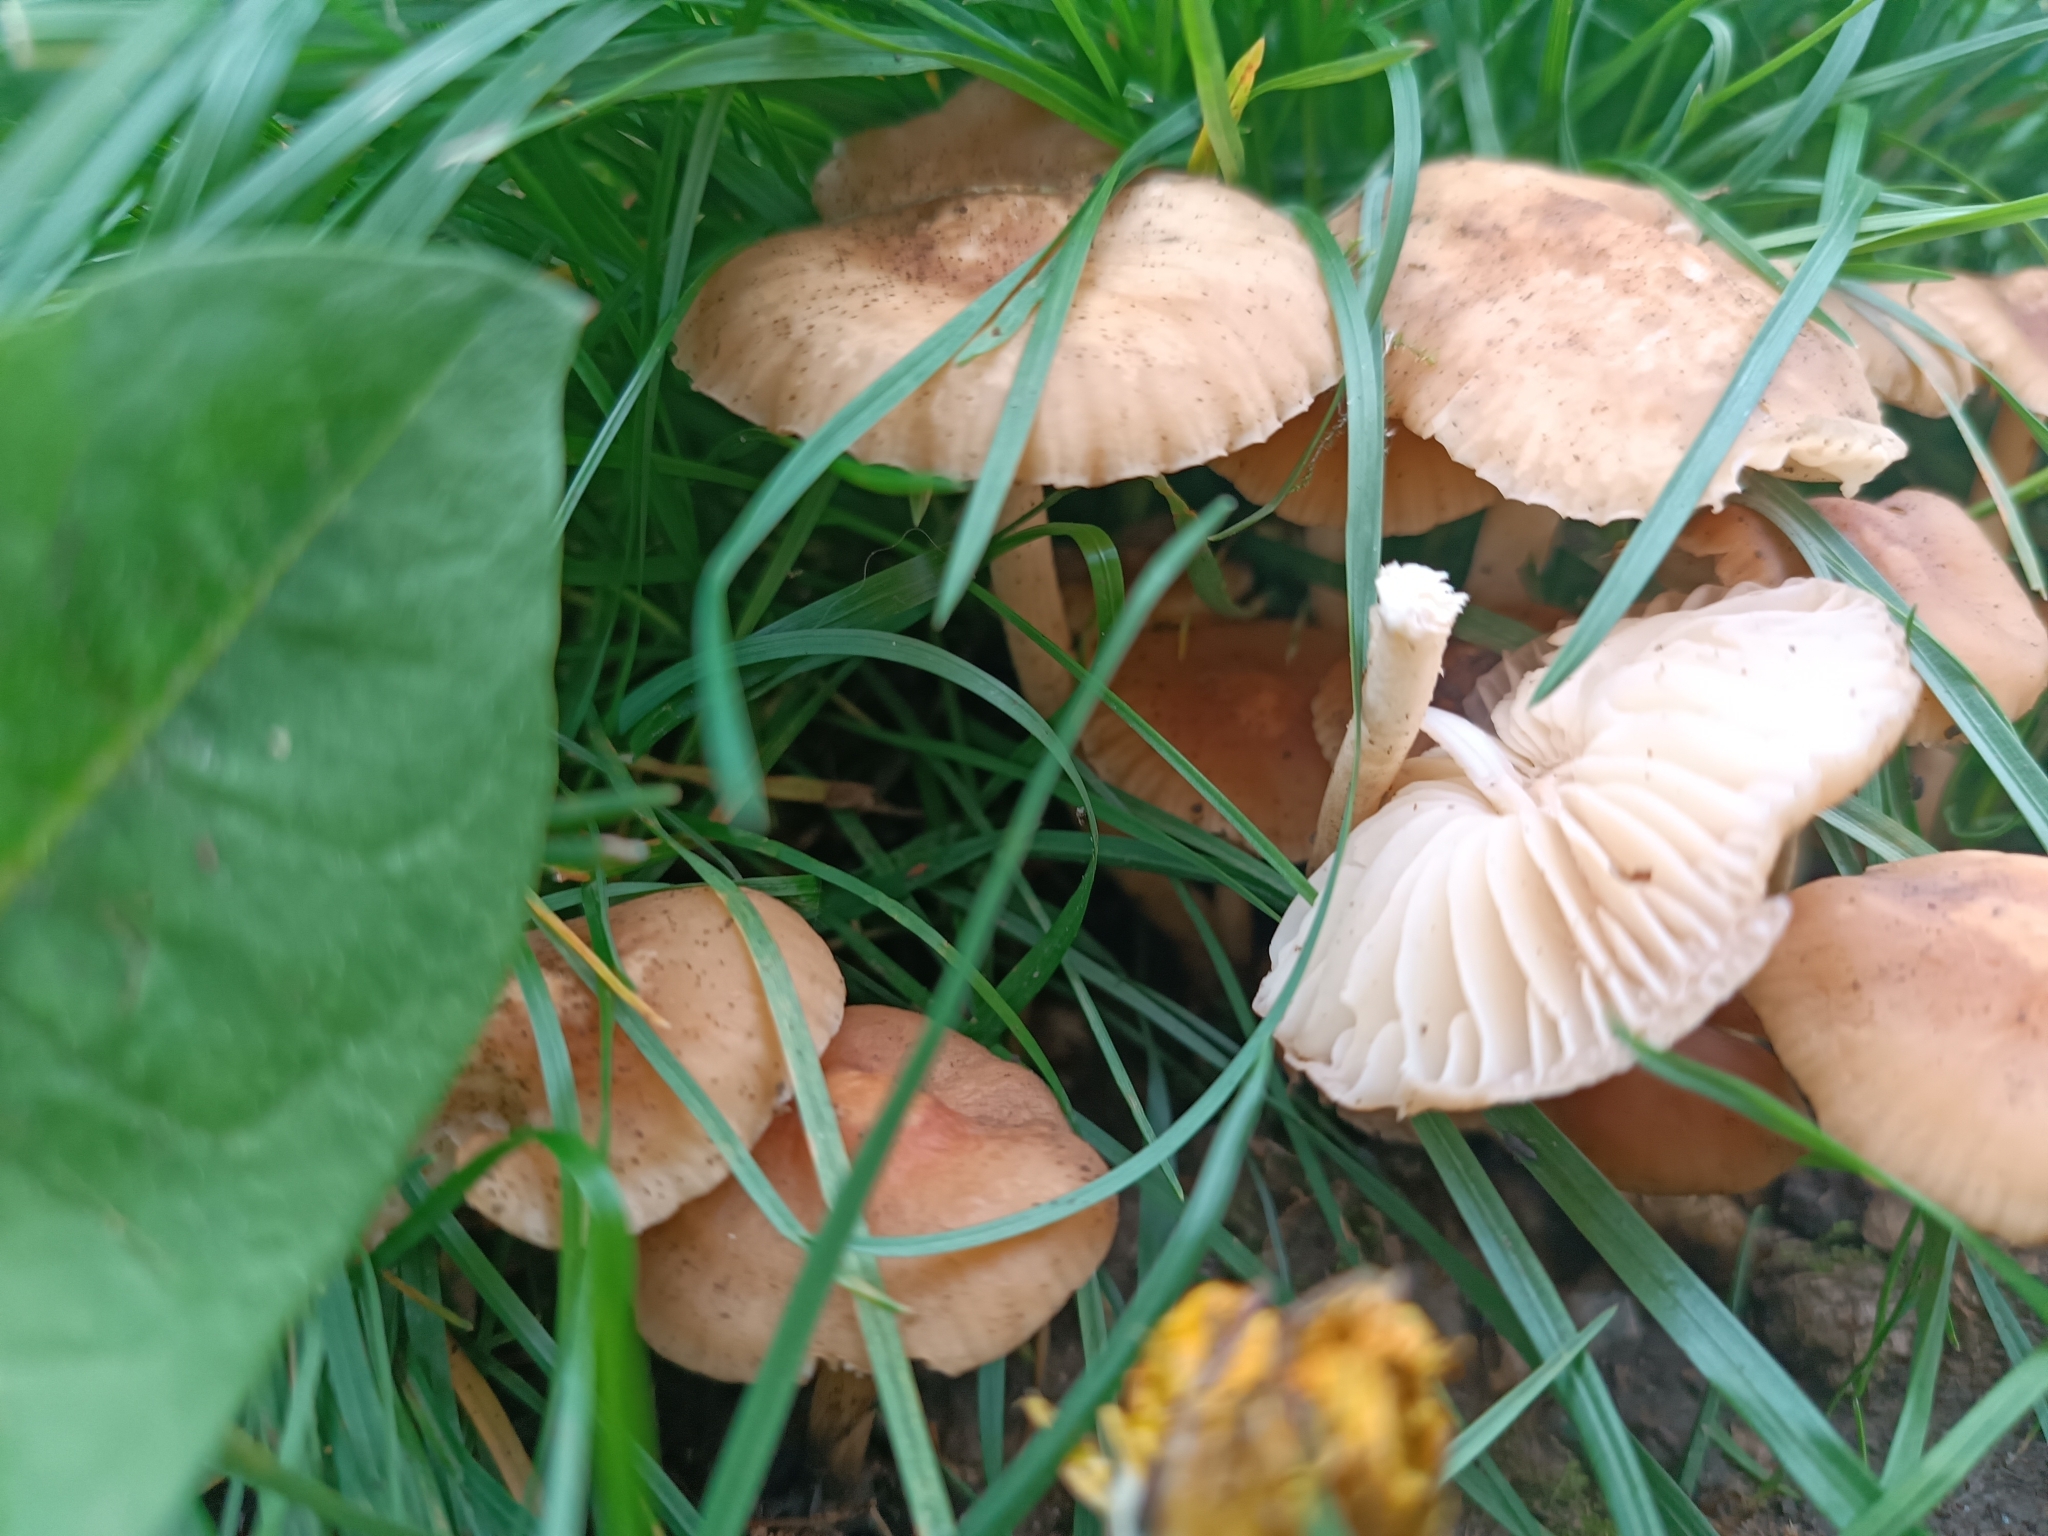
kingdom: Fungi
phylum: Basidiomycota
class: Agaricomycetes
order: Agaricales
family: Marasmiaceae
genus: Marasmius
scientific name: Marasmius oreades
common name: Fairy ring champignon
